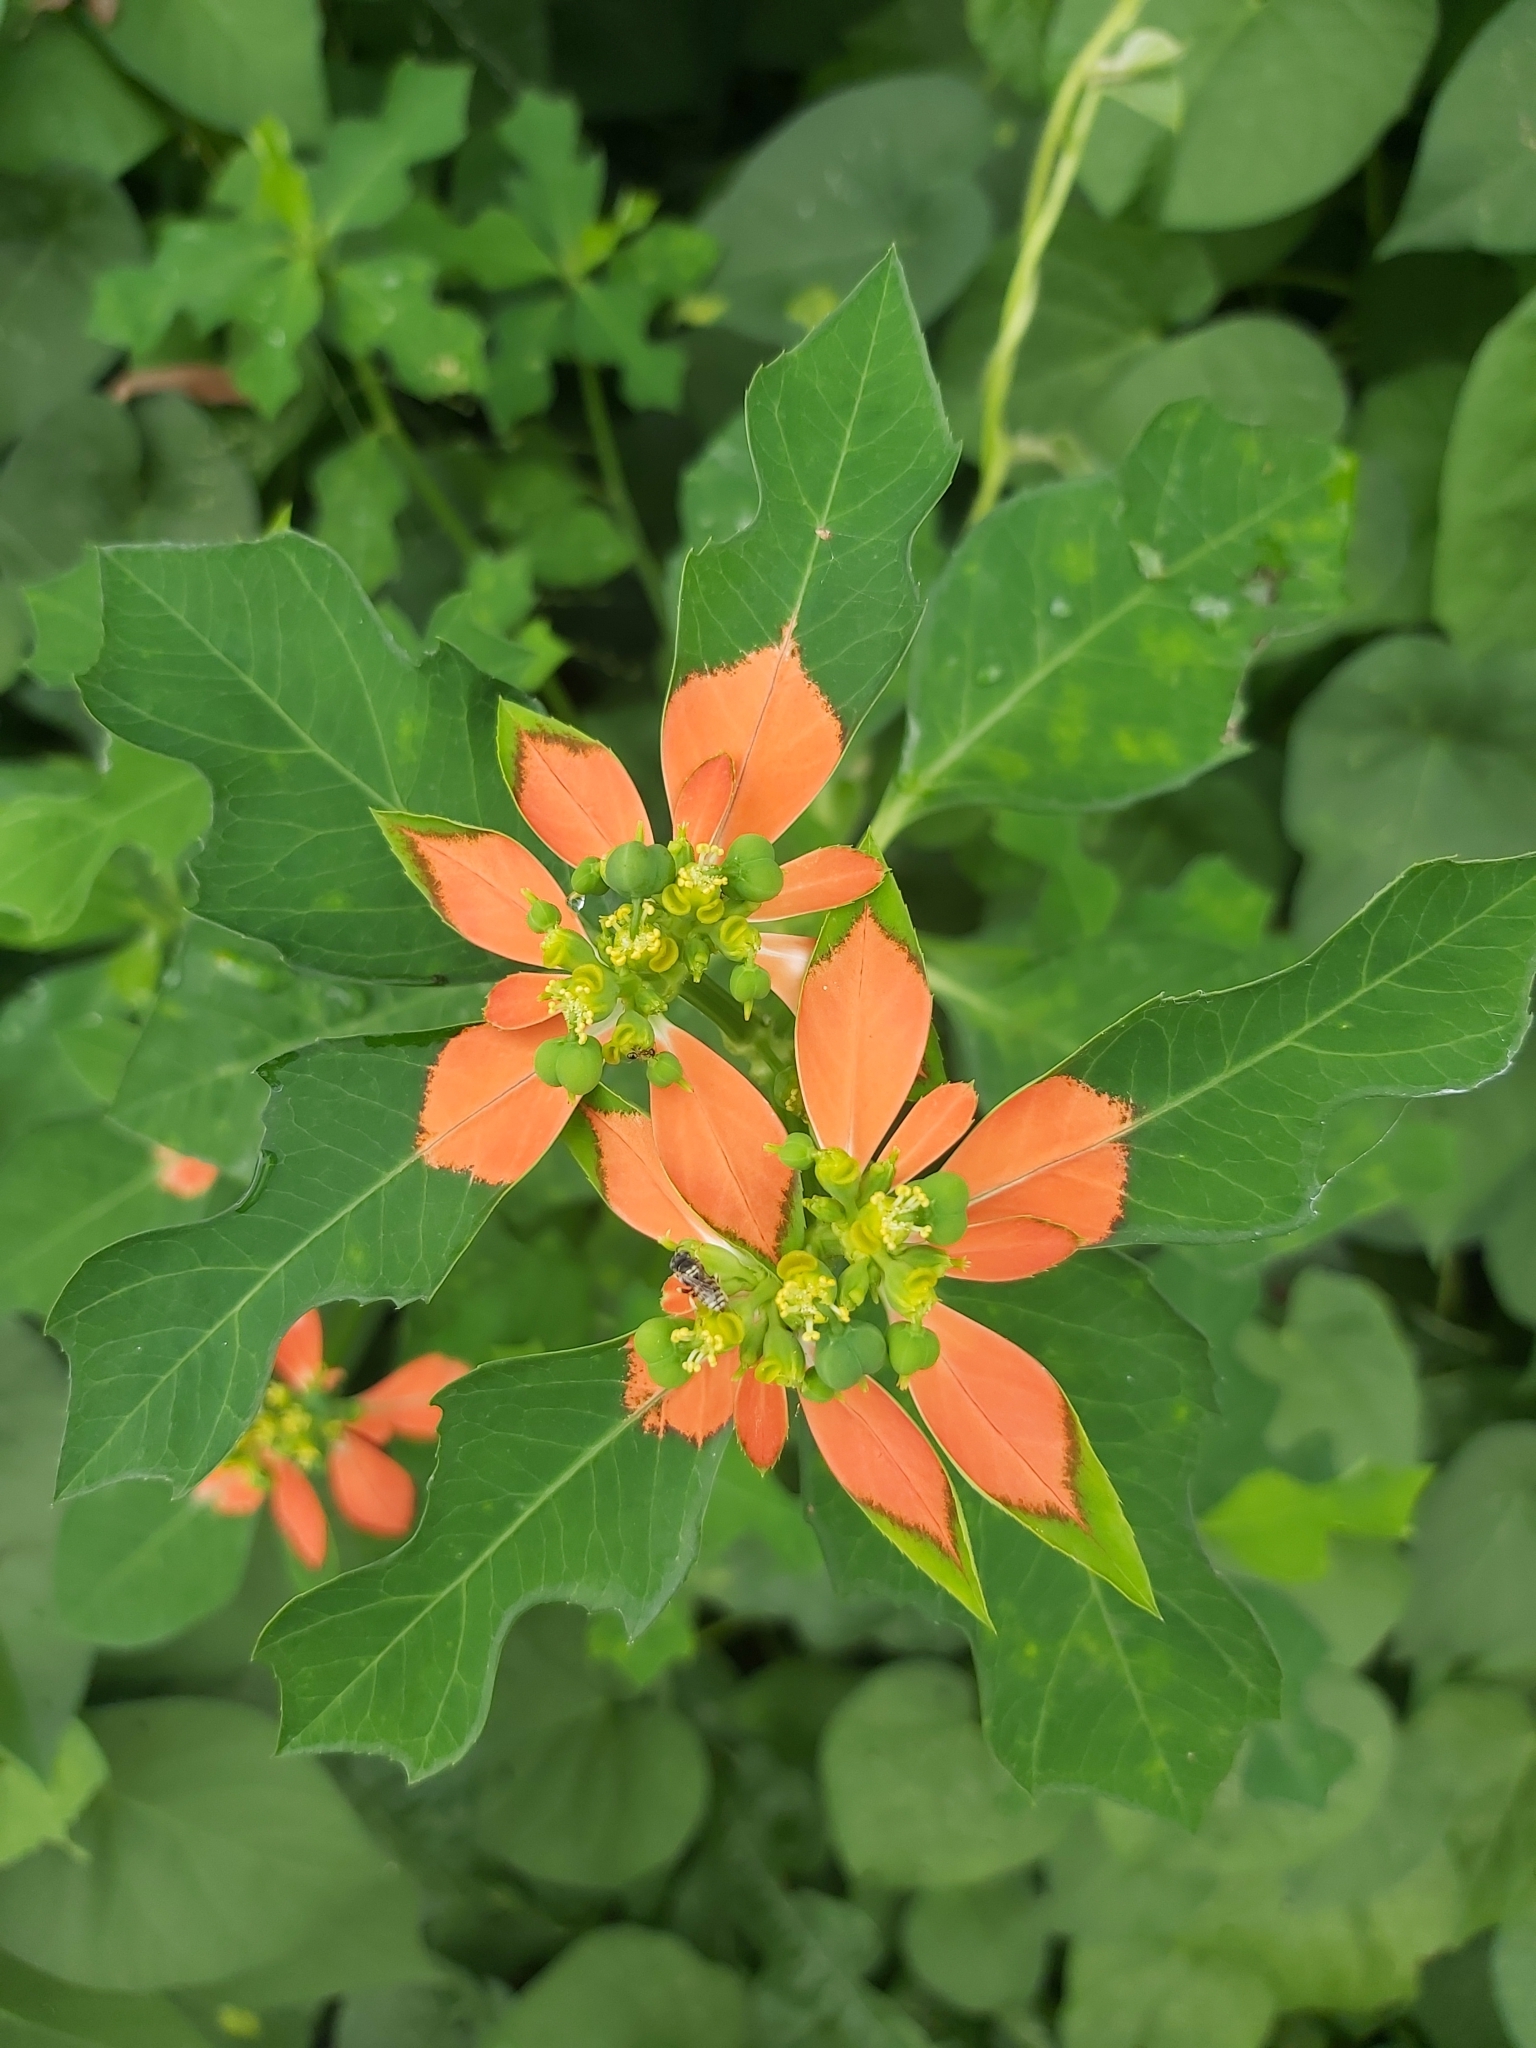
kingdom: Plantae
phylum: Tracheophyta
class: Magnoliopsida
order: Malpighiales
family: Euphorbiaceae
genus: Euphorbia
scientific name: Euphorbia heterophylla
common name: Mexican fireplant
